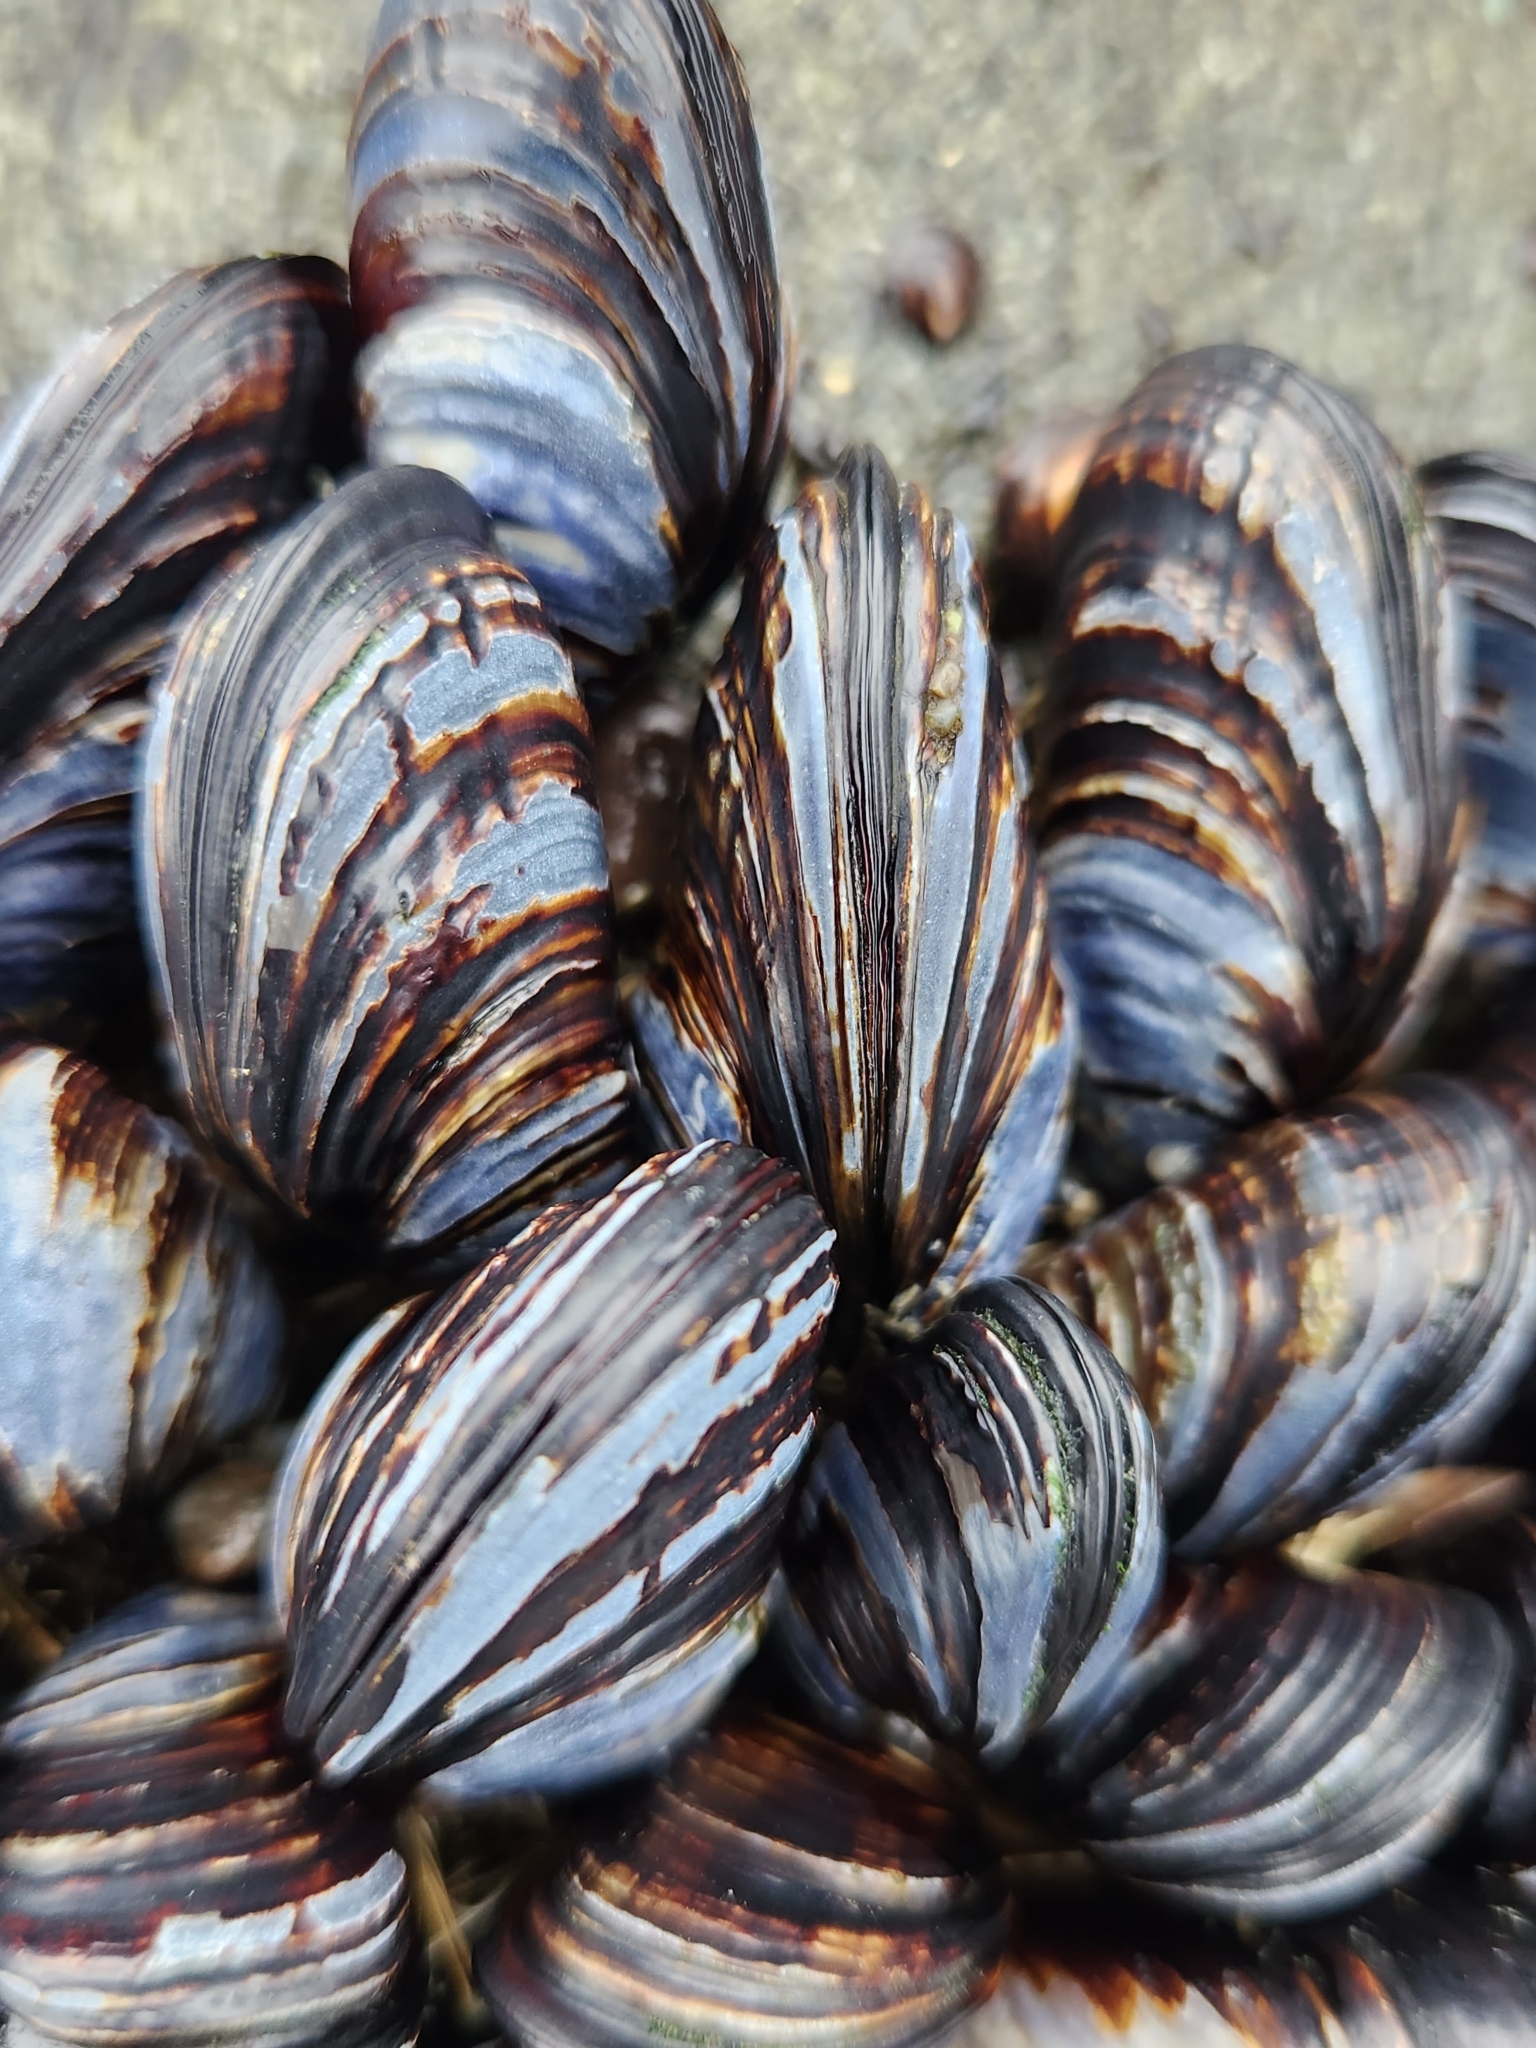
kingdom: Animalia
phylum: Mollusca
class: Bivalvia
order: Mytilida
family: Mytilidae
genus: Mytilus
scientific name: Mytilus californianus
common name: California mussel
